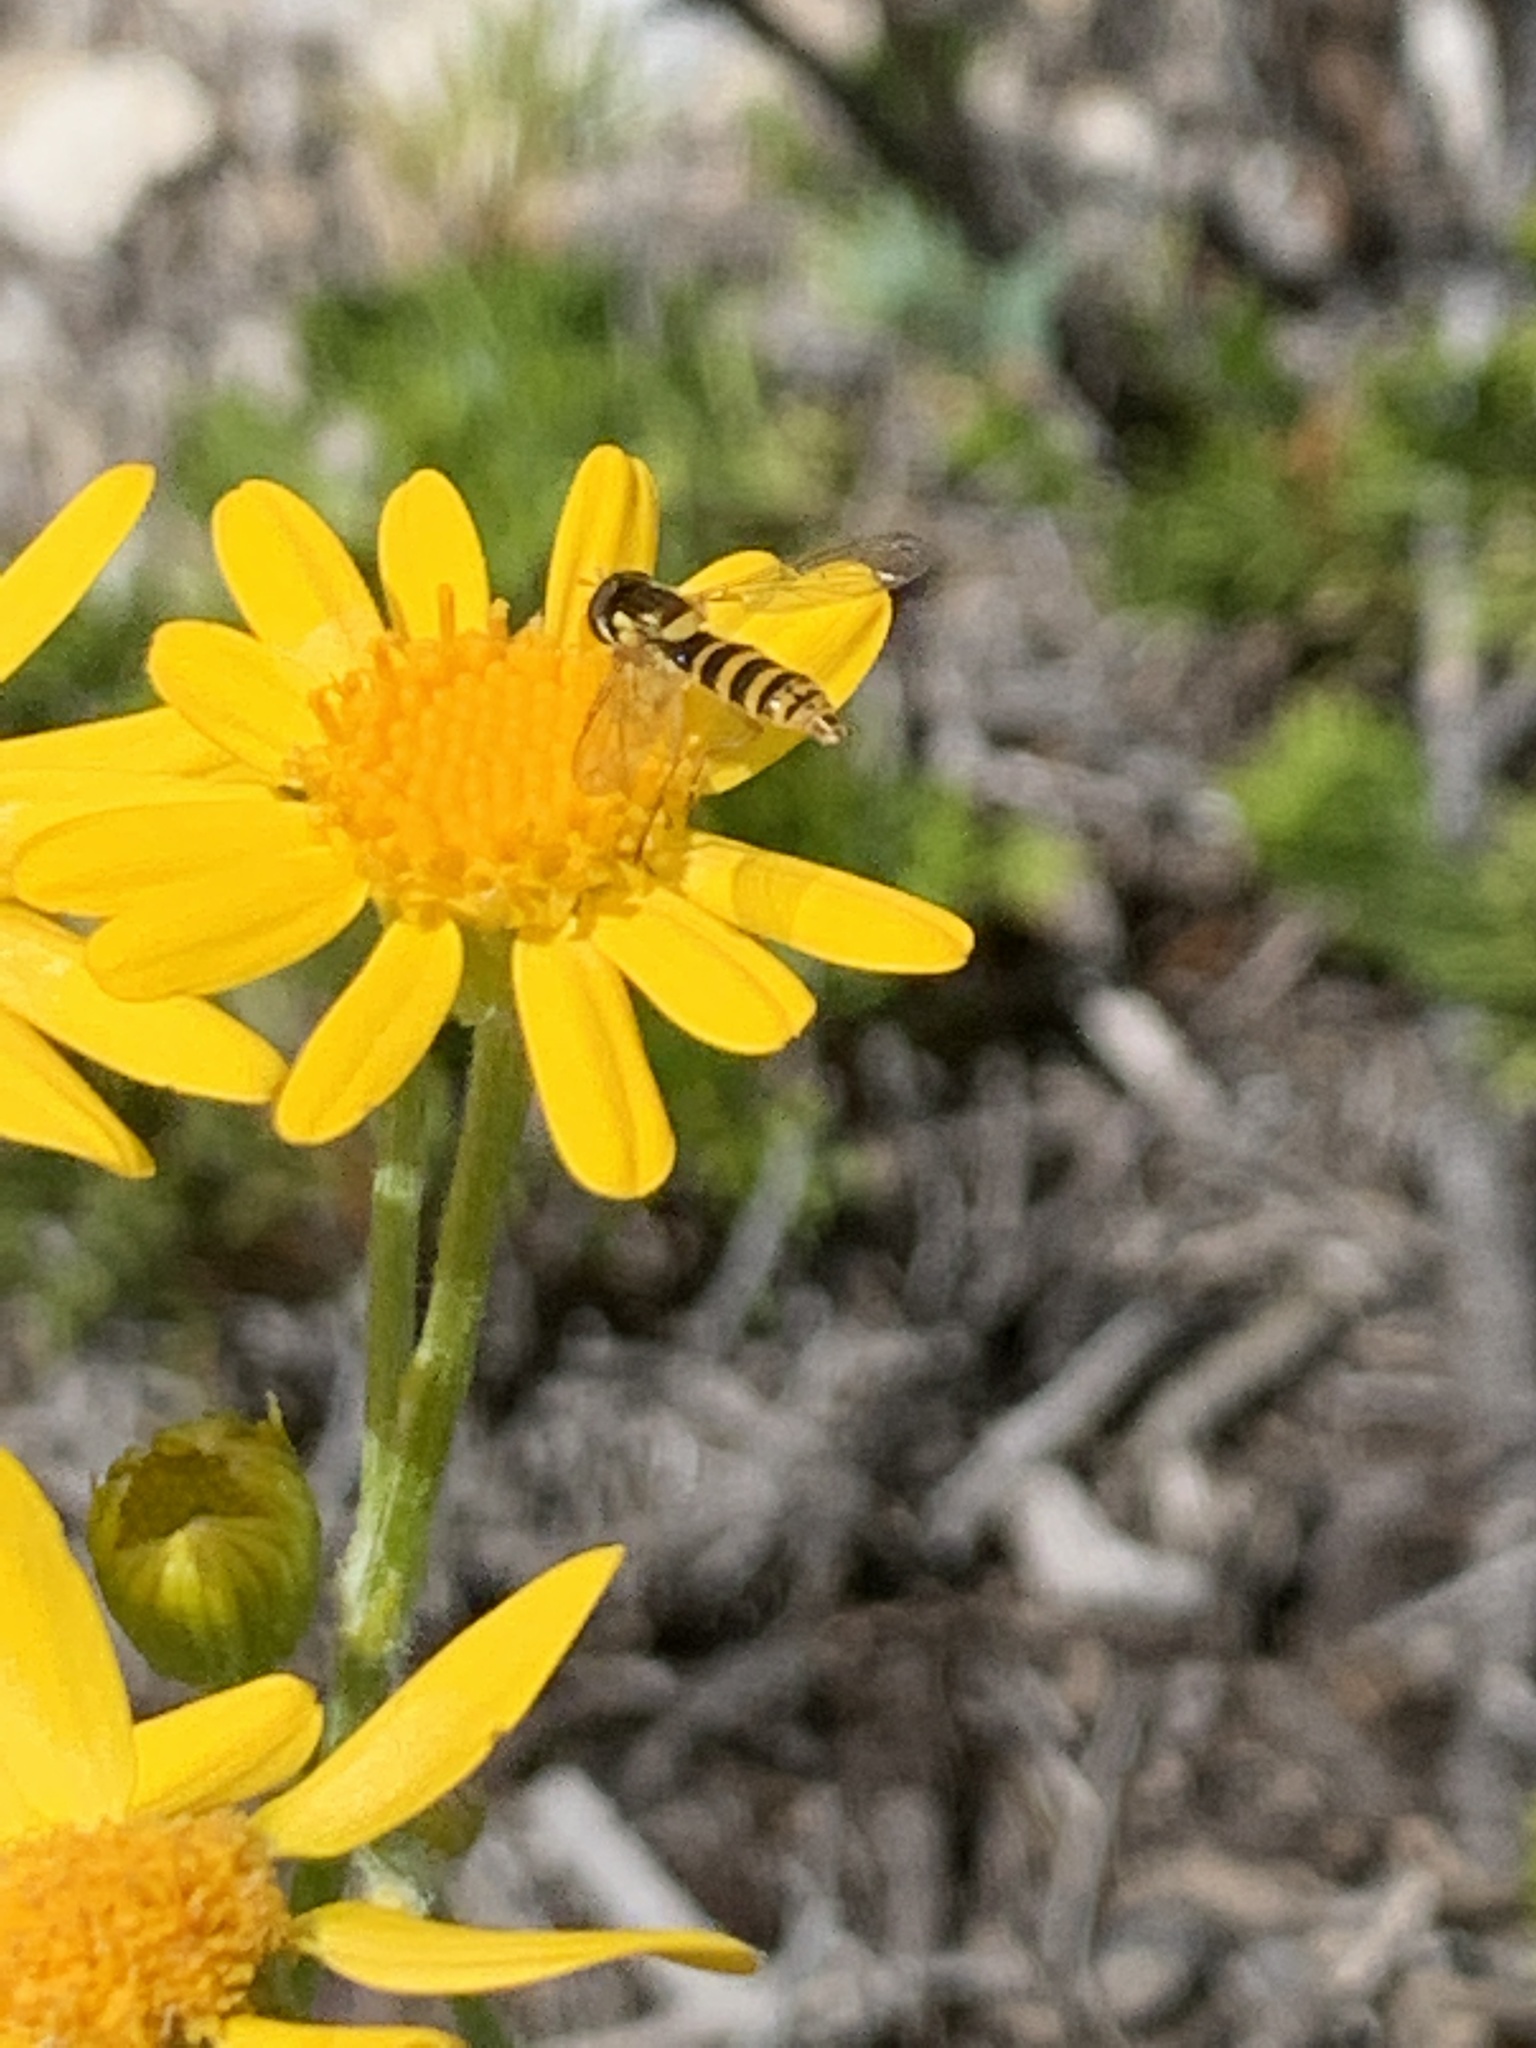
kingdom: Plantae
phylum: Tracheophyta
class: Magnoliopsida
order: Asterales
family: Asteraceae
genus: Packera
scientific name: Packera cana
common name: Woolly groundsel
